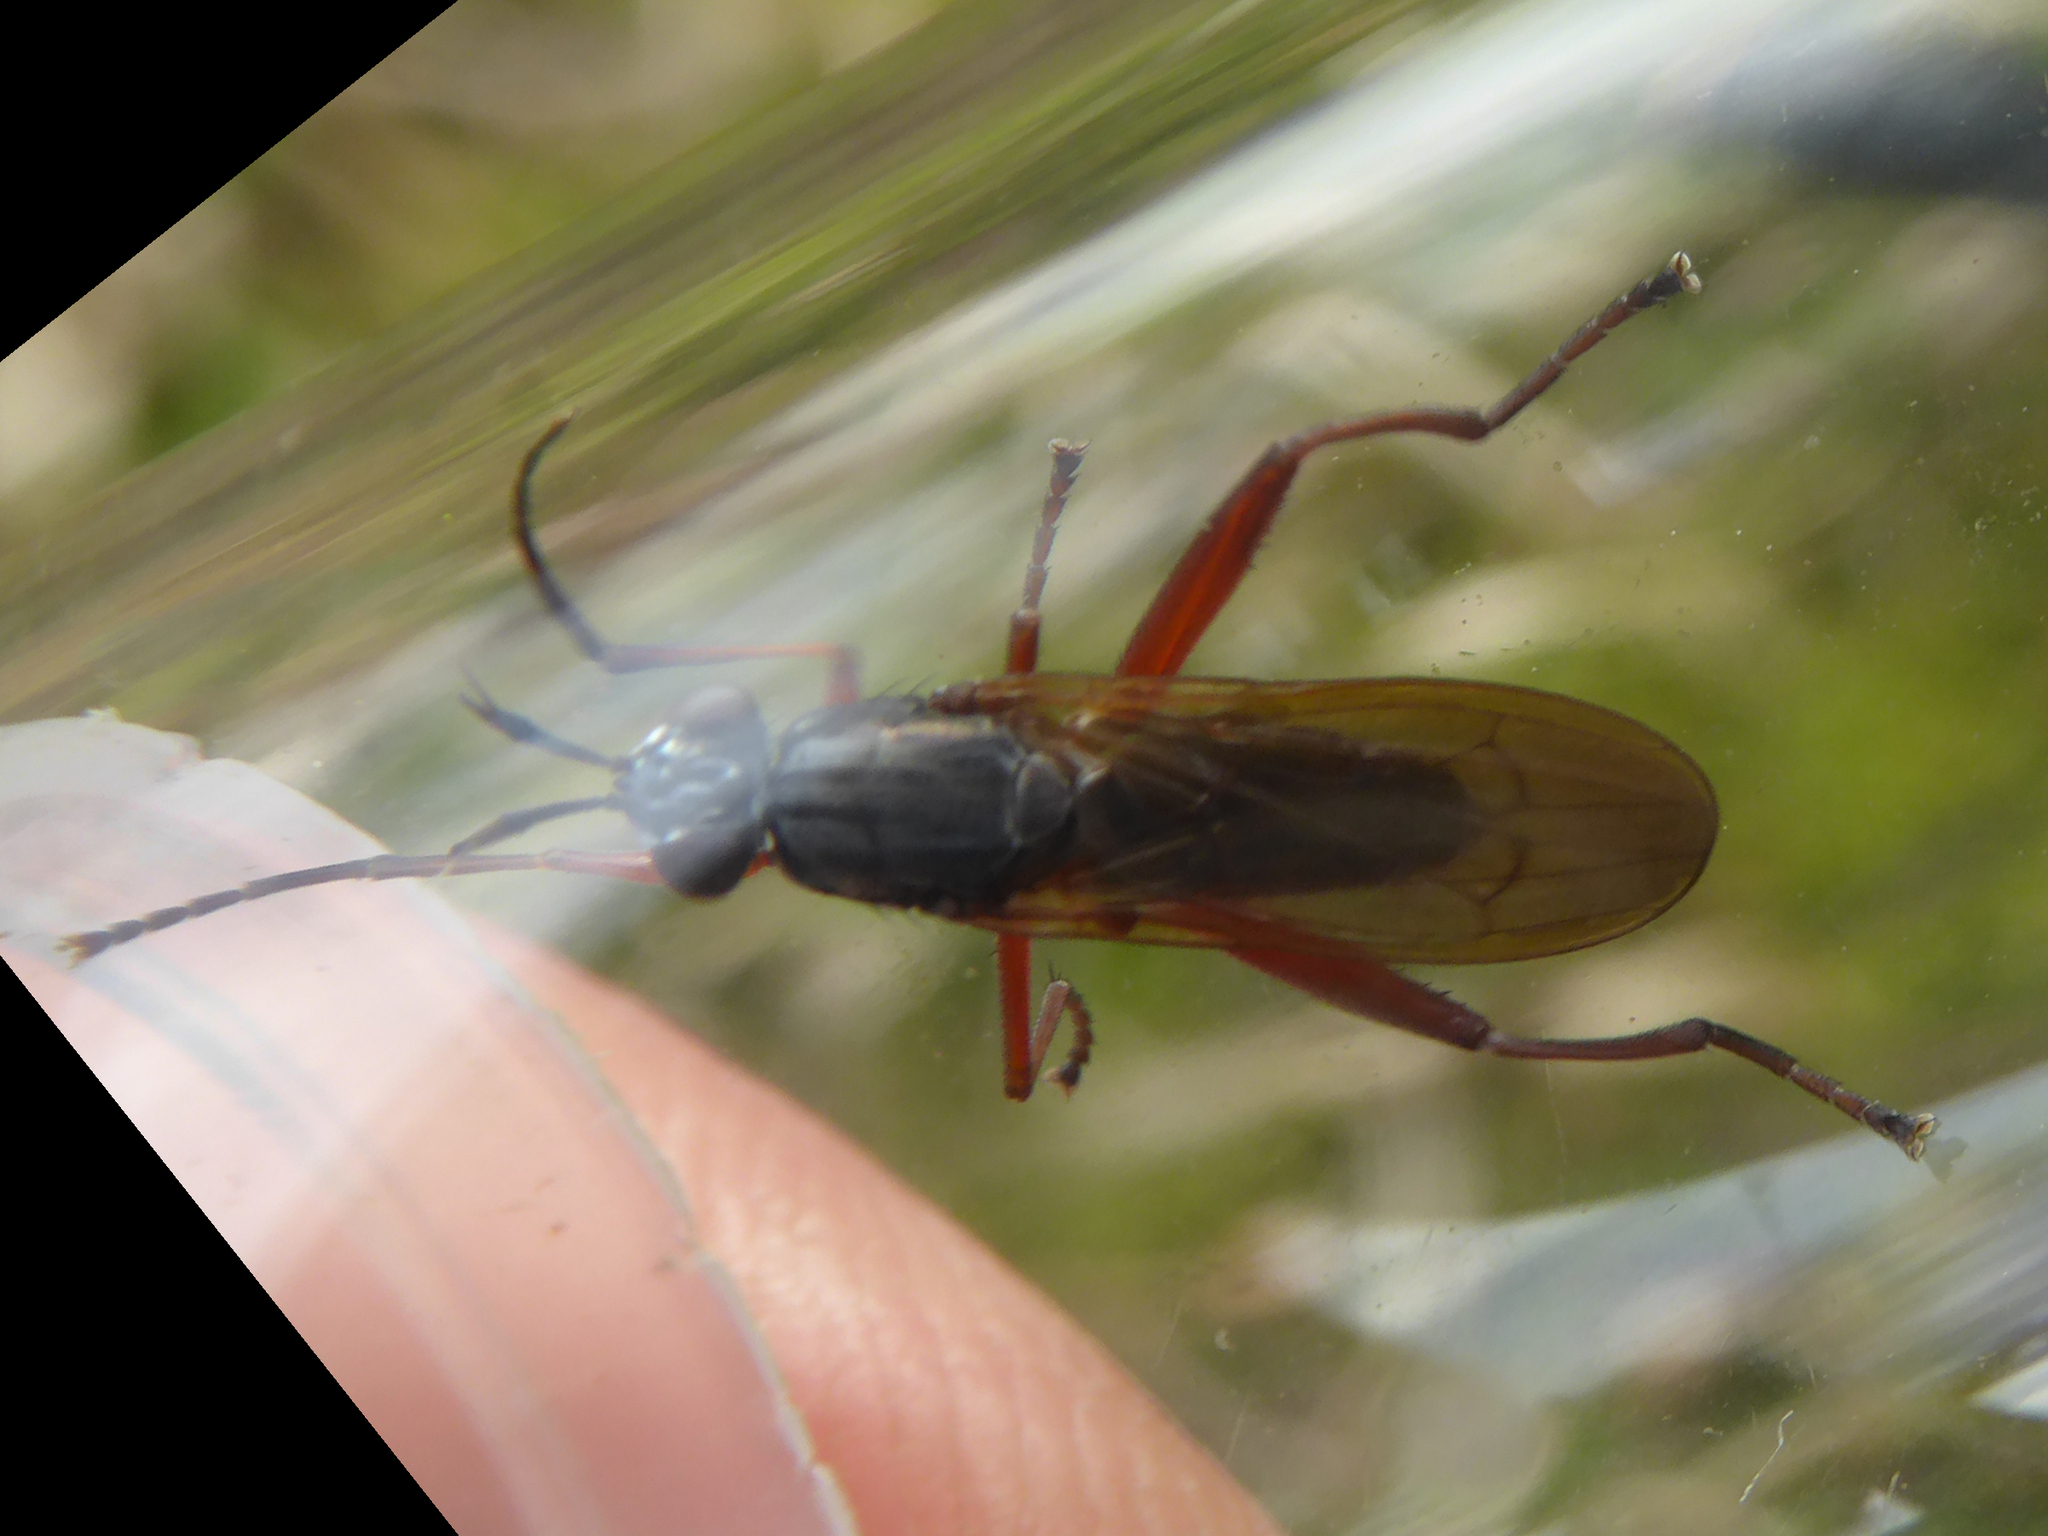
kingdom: Animalia
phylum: Arthropoda
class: Insecta
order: Diptera
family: Sciomyzidae
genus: Sepedon
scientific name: Sepedon sphegea
